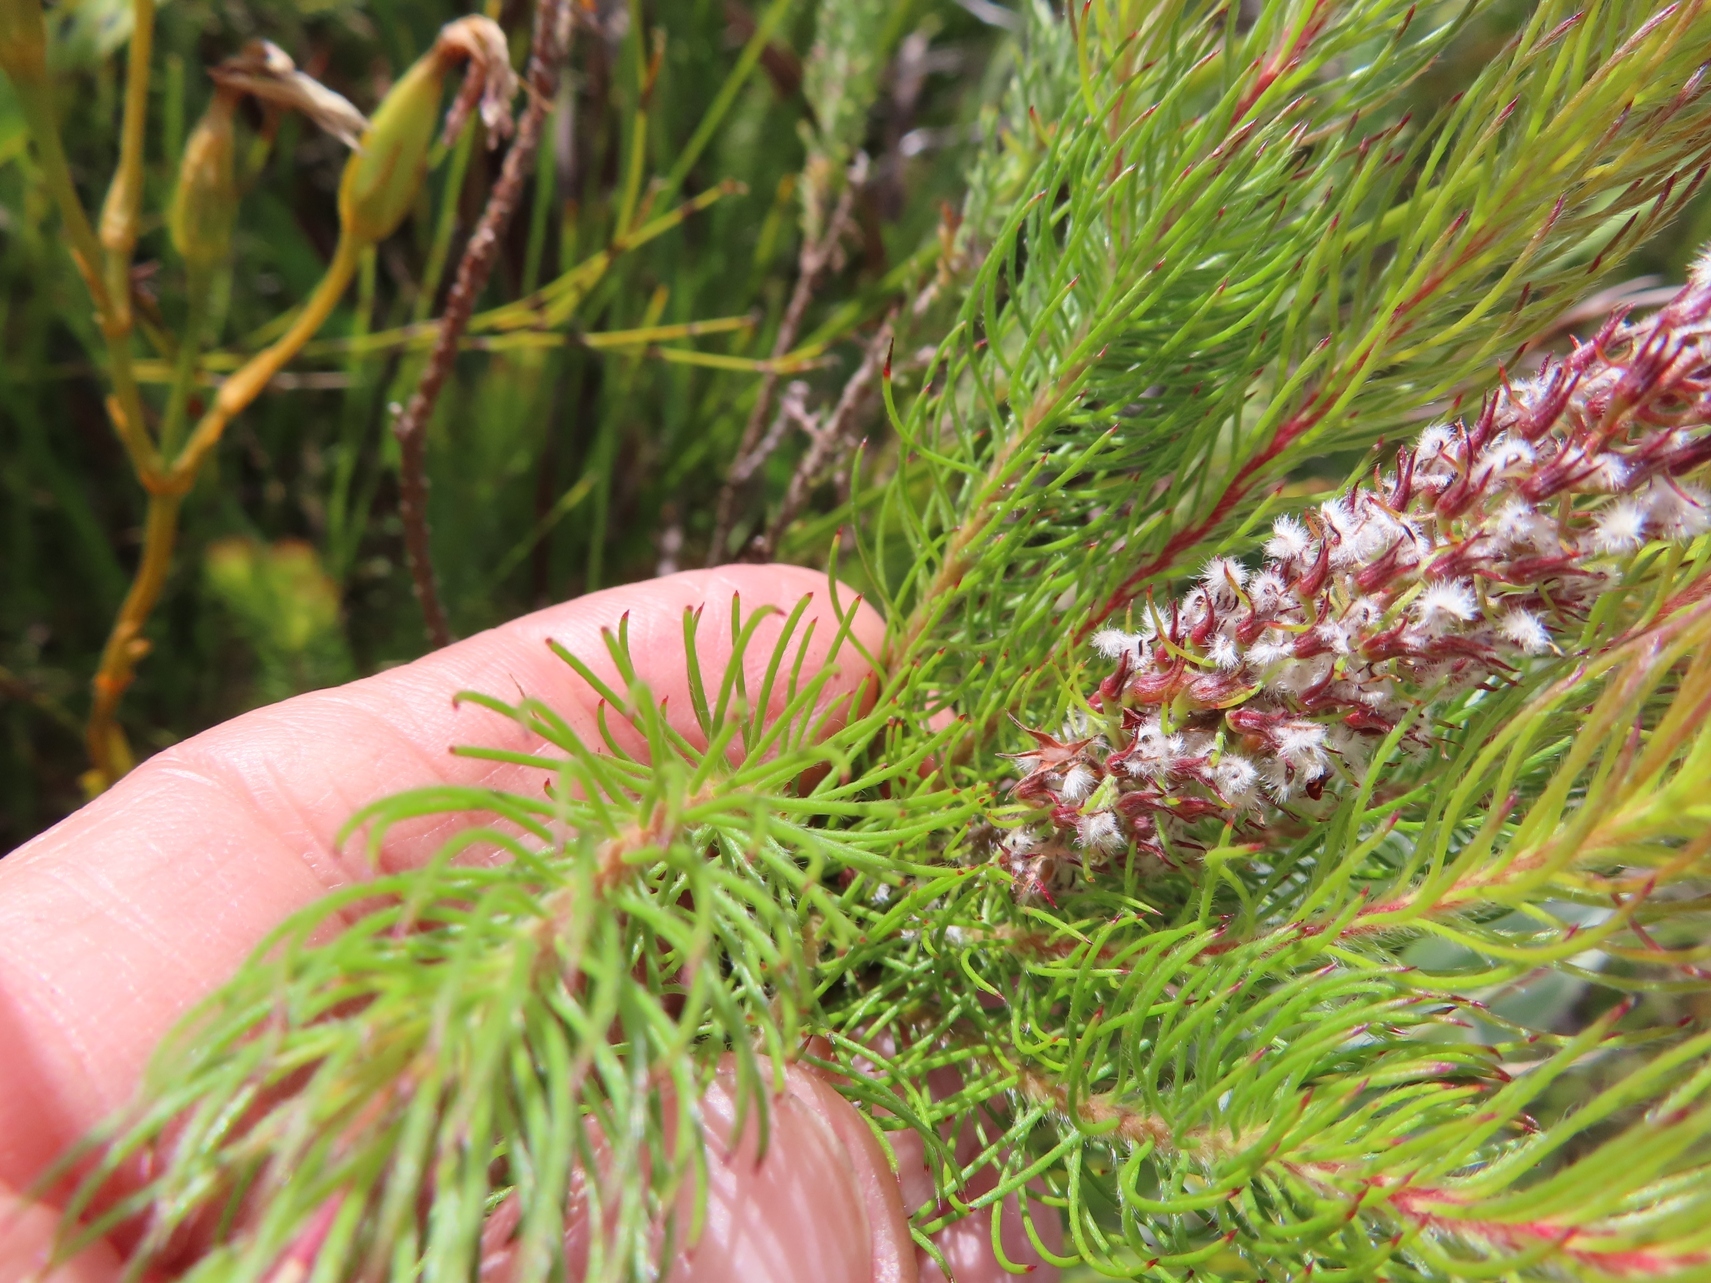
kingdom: Plantae
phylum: Tracheophyta
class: Magnoliopsida
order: Proteales
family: Proteaceae
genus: Spatalla
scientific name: Spatalla parilis
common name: Spike spoon
